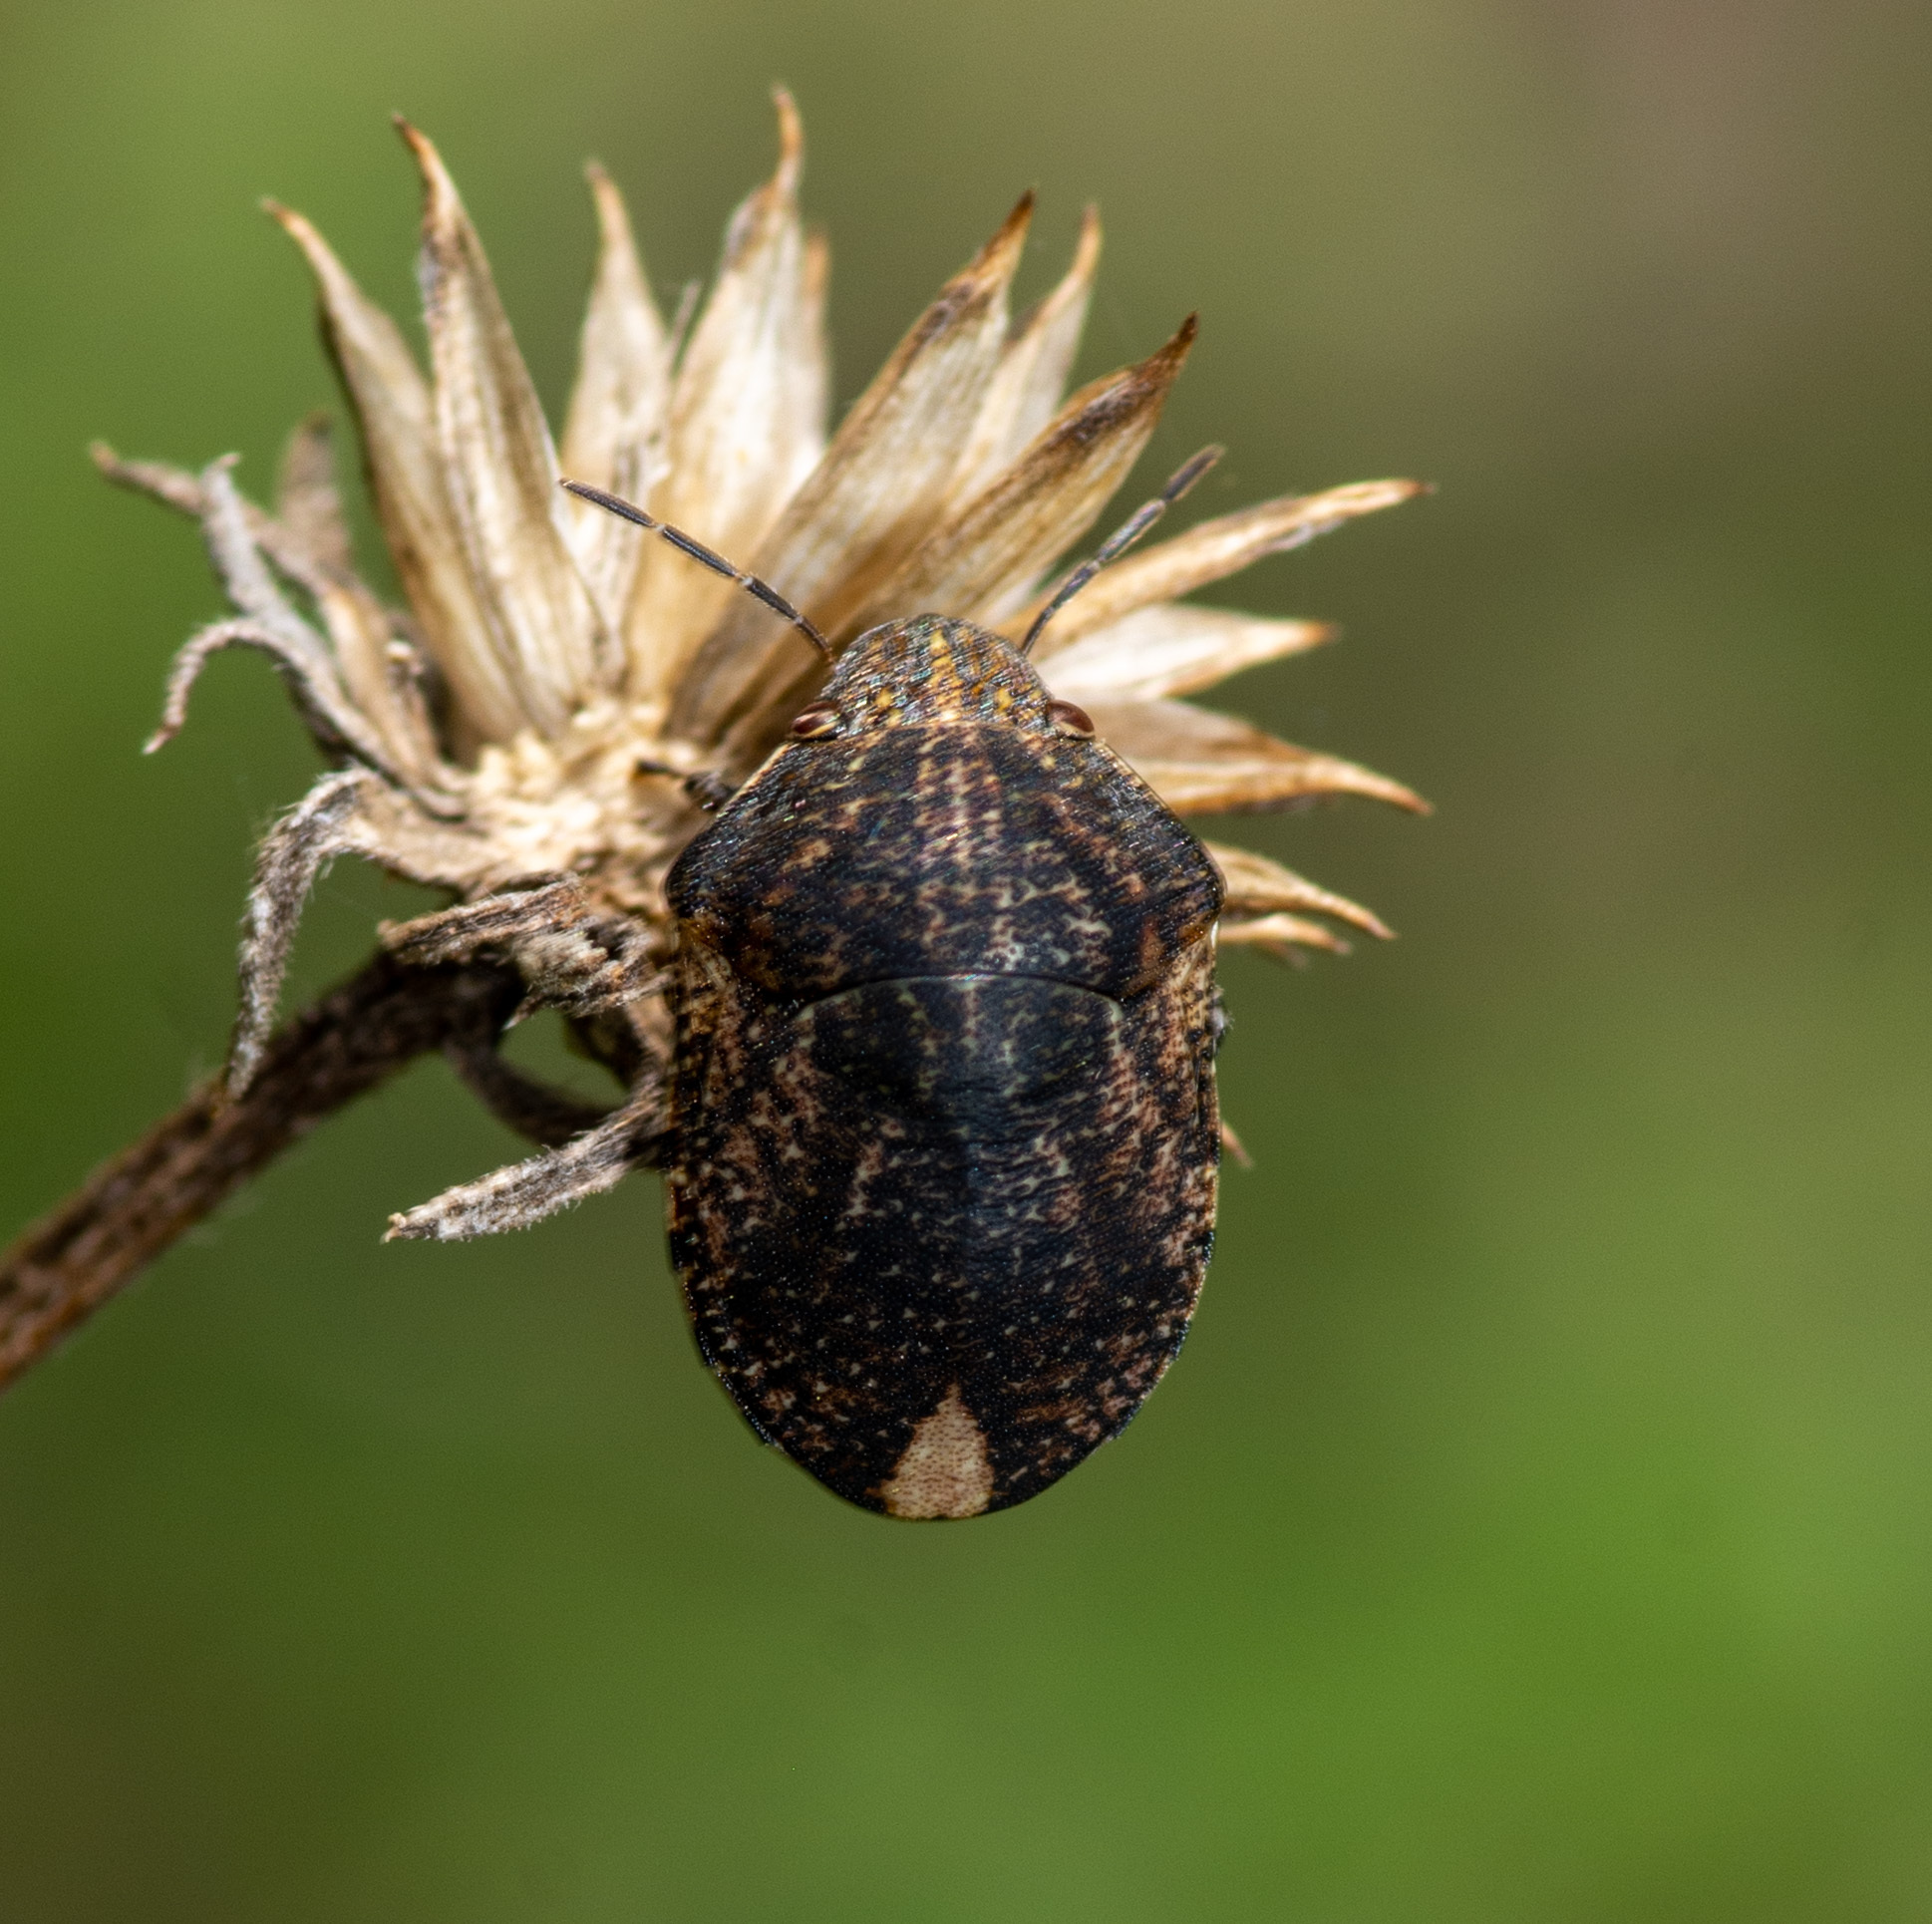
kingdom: Animalia
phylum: Arthropoda
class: Insecta
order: Hemiptera
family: Scutelleridae
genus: Sphyrocoris
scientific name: Sphyrocoris obliquus
